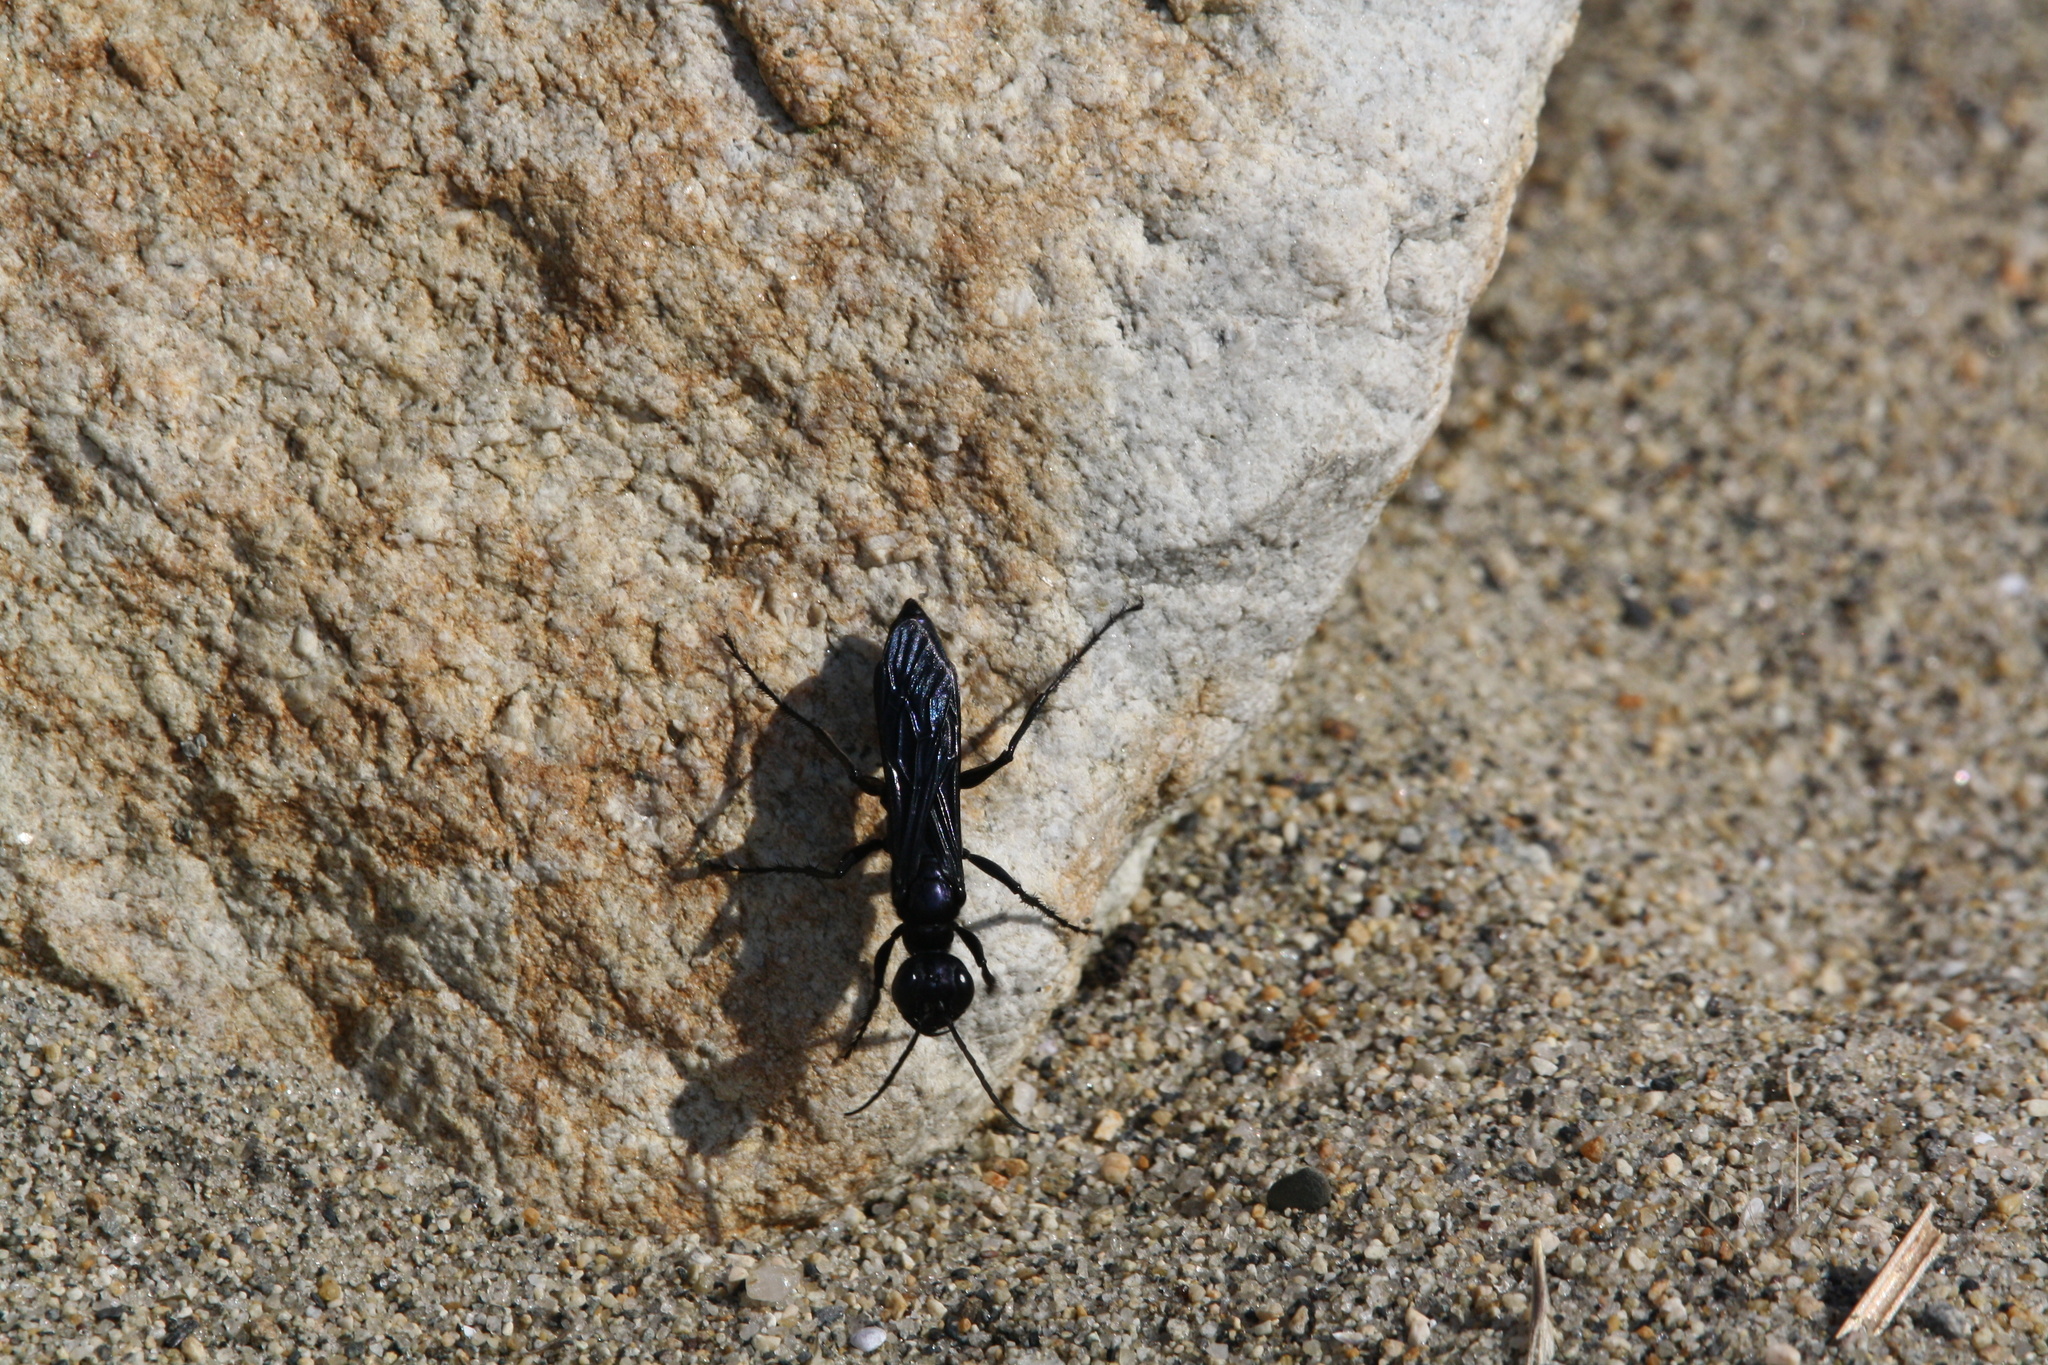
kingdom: Animalia
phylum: Arthropoda
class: Insecta
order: Hymenoptera
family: Sphecidae
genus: Chlorion
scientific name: Chlorion aerarium
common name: Steel-blue cricket hunter
